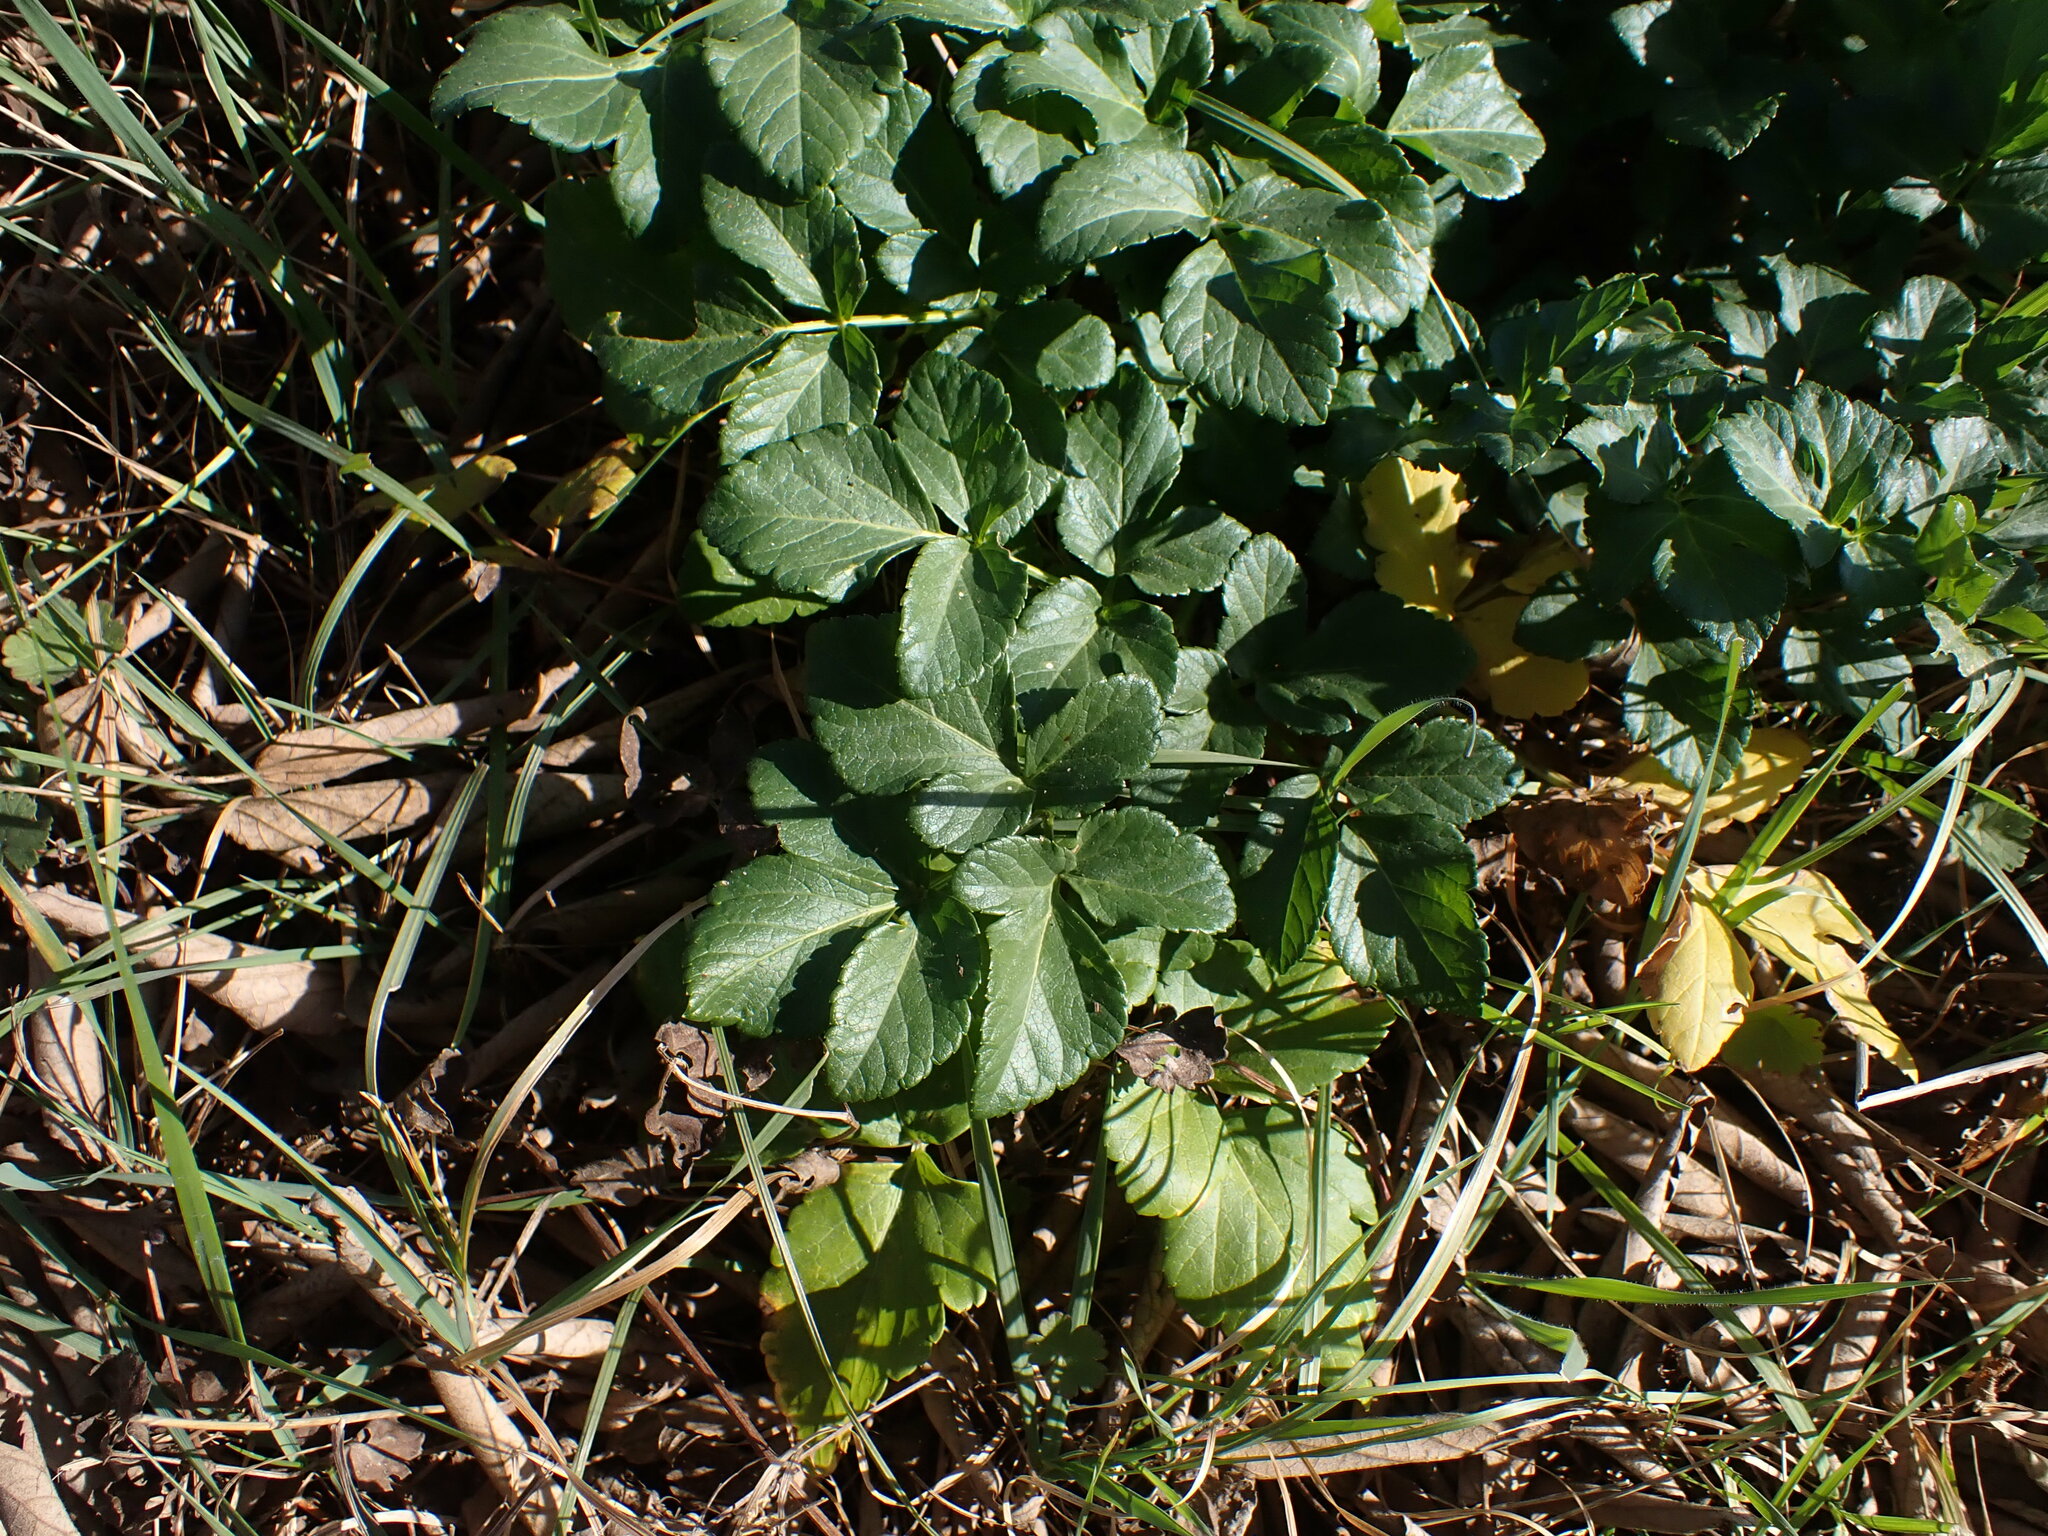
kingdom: Plantae
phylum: Tracheophyta
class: Magnoliopsida
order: Apiales
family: Apiaceae
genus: Smyrnium
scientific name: Smyrnium olusatrum
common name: Alexanders
